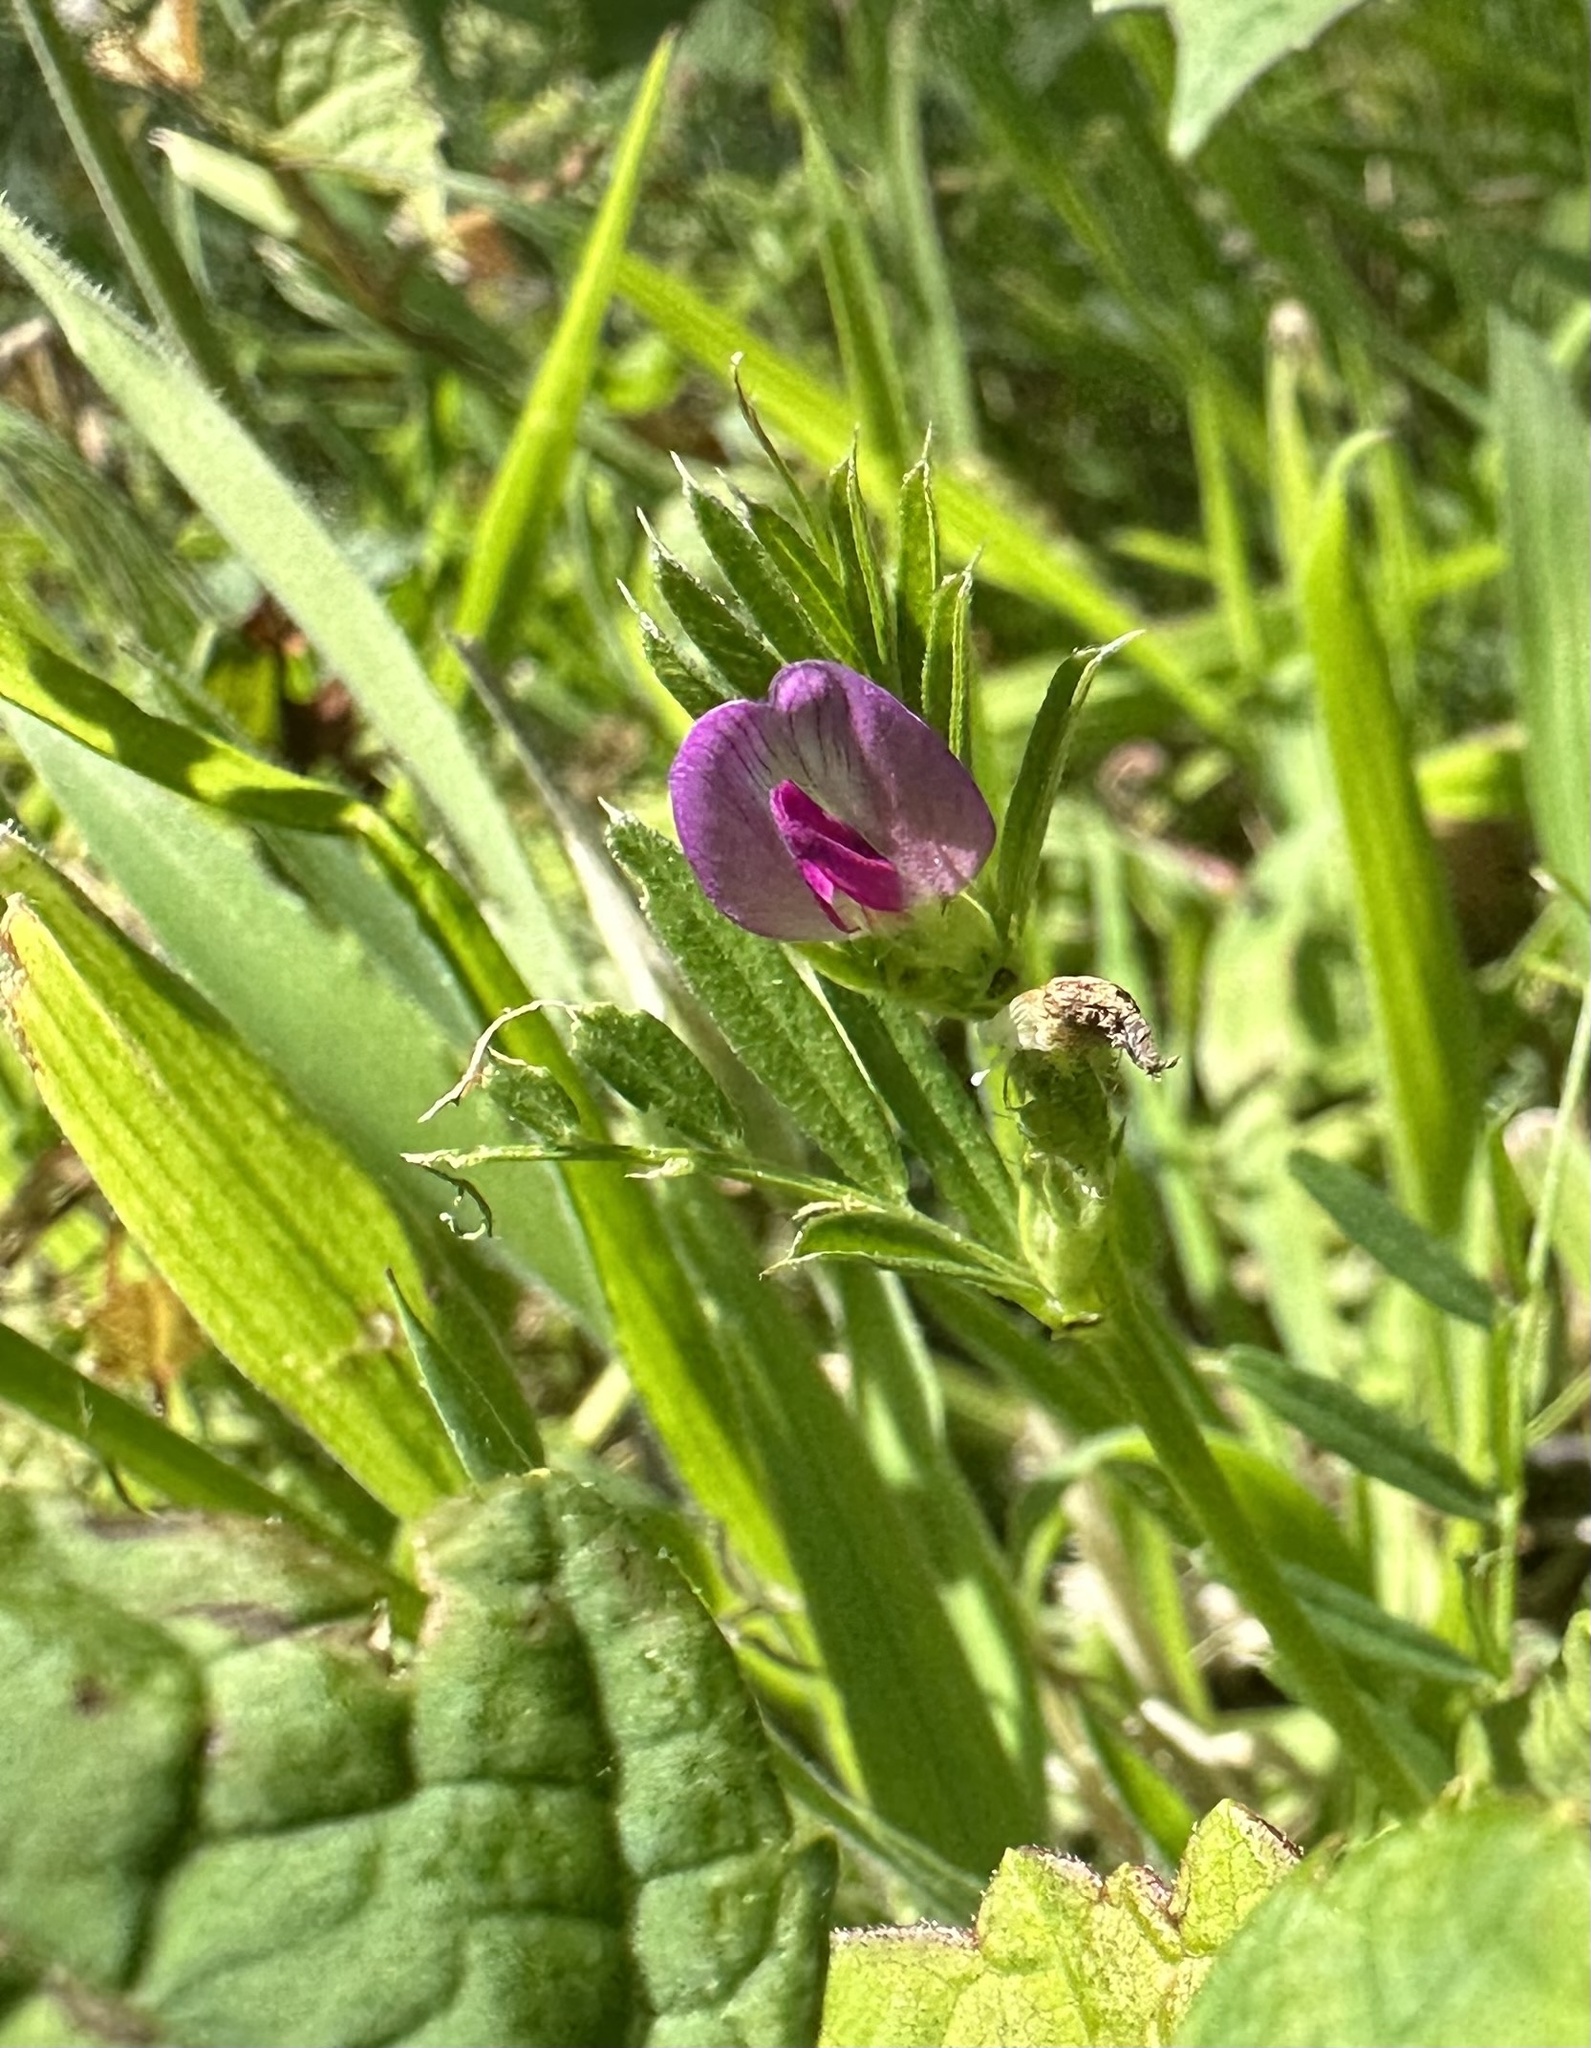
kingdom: Plantae
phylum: Tracheophyta
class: Magnoliopsida
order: Fabales
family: Fabaceae
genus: Vicia
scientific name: Vicia sativa
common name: Garden vetch
